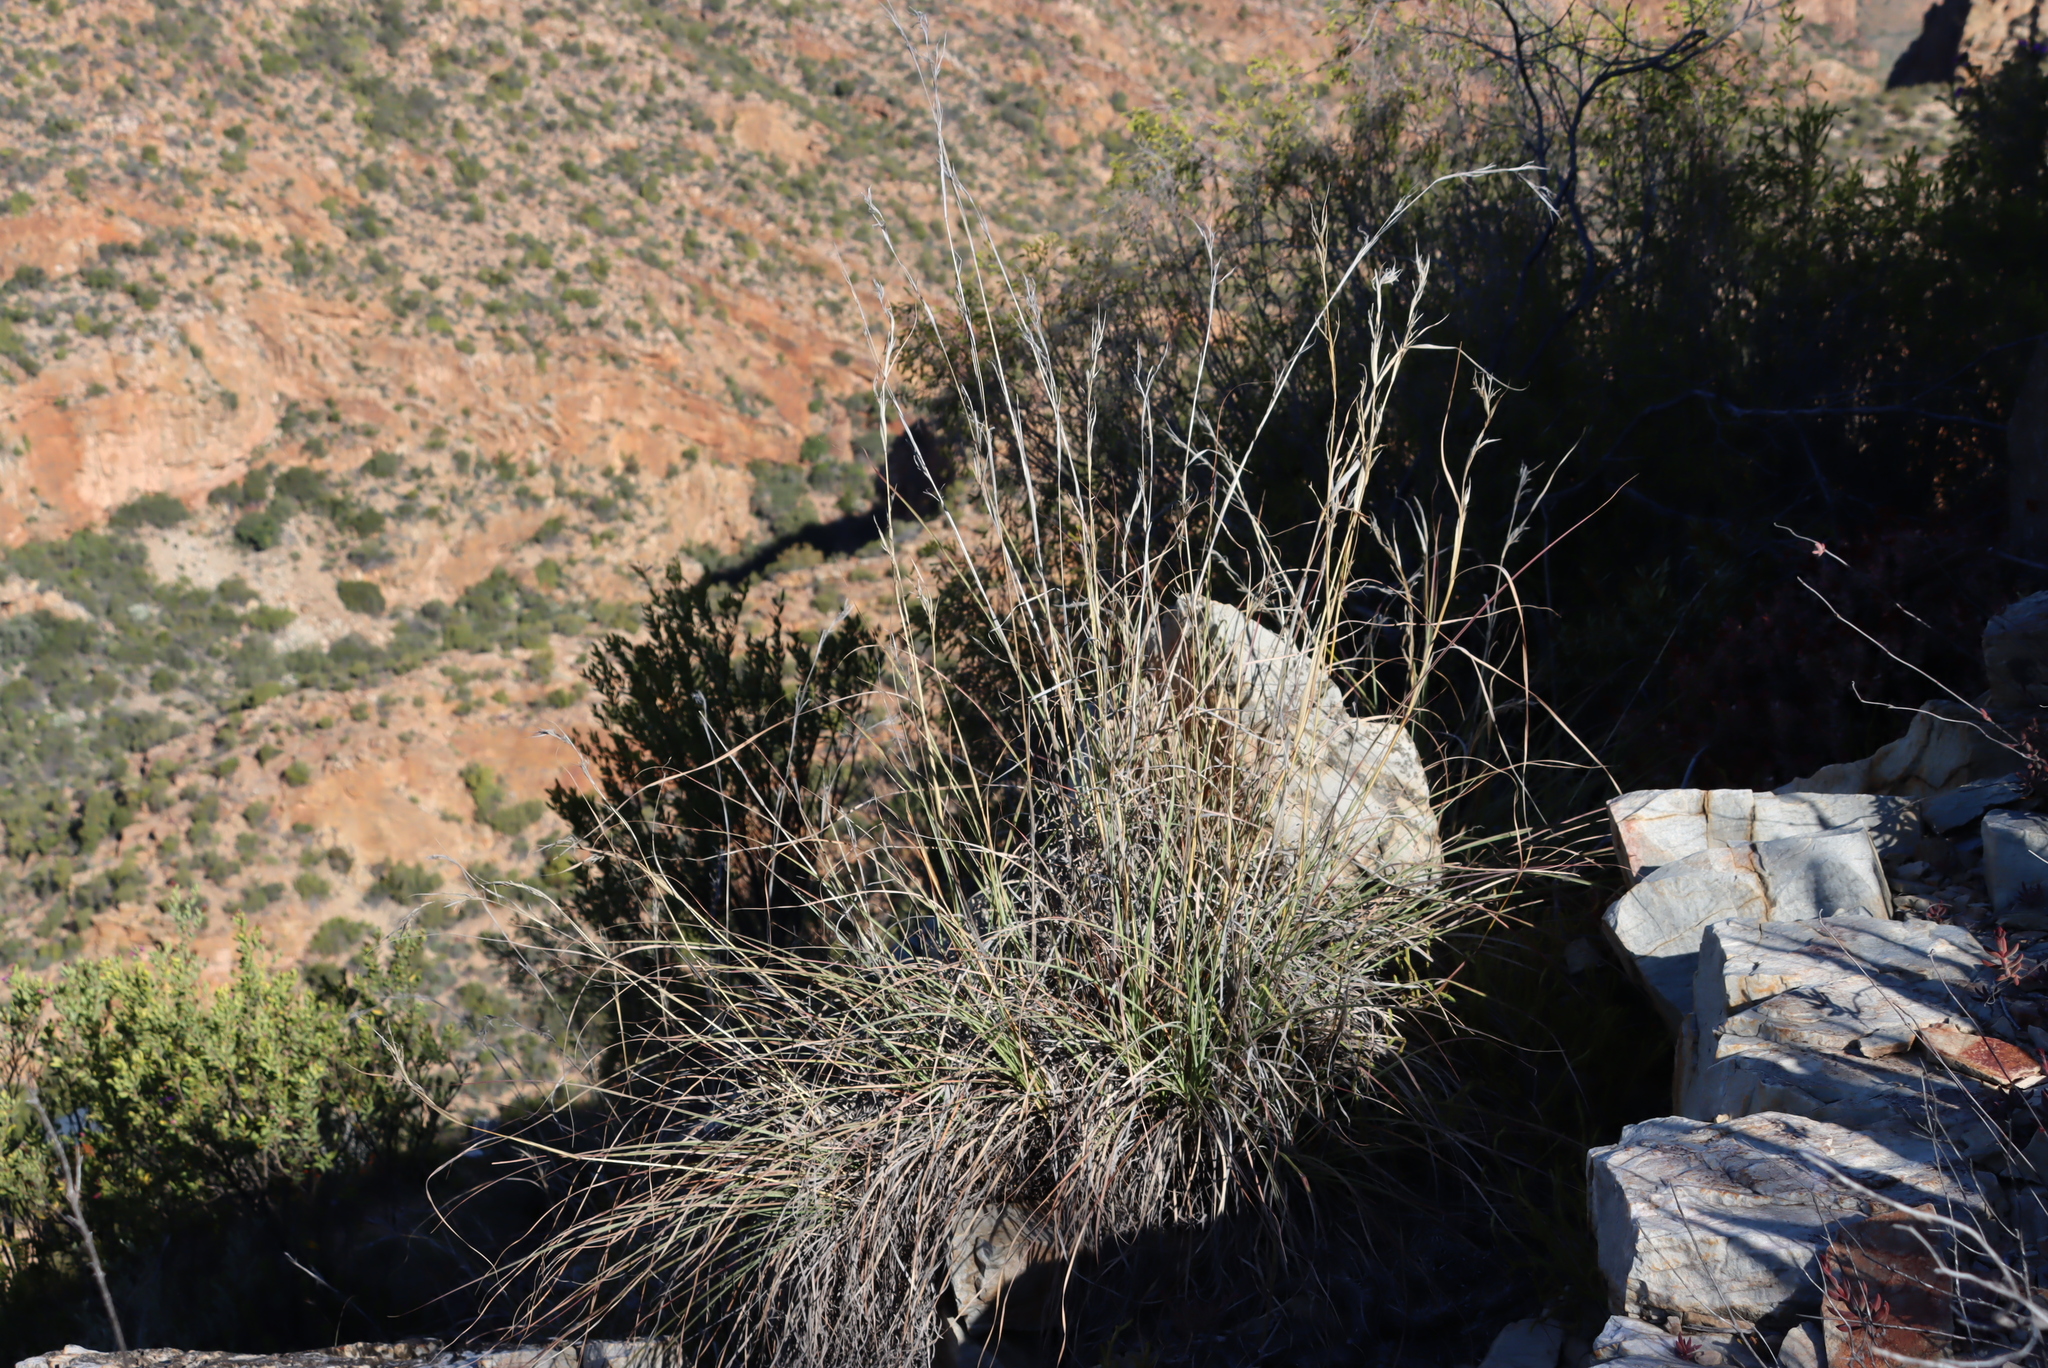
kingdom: Plantae
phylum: Tracheophyta
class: Liliopsida
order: Poales
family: Poaceae
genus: Cymbopogon
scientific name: Cymbopogon pospischilii
